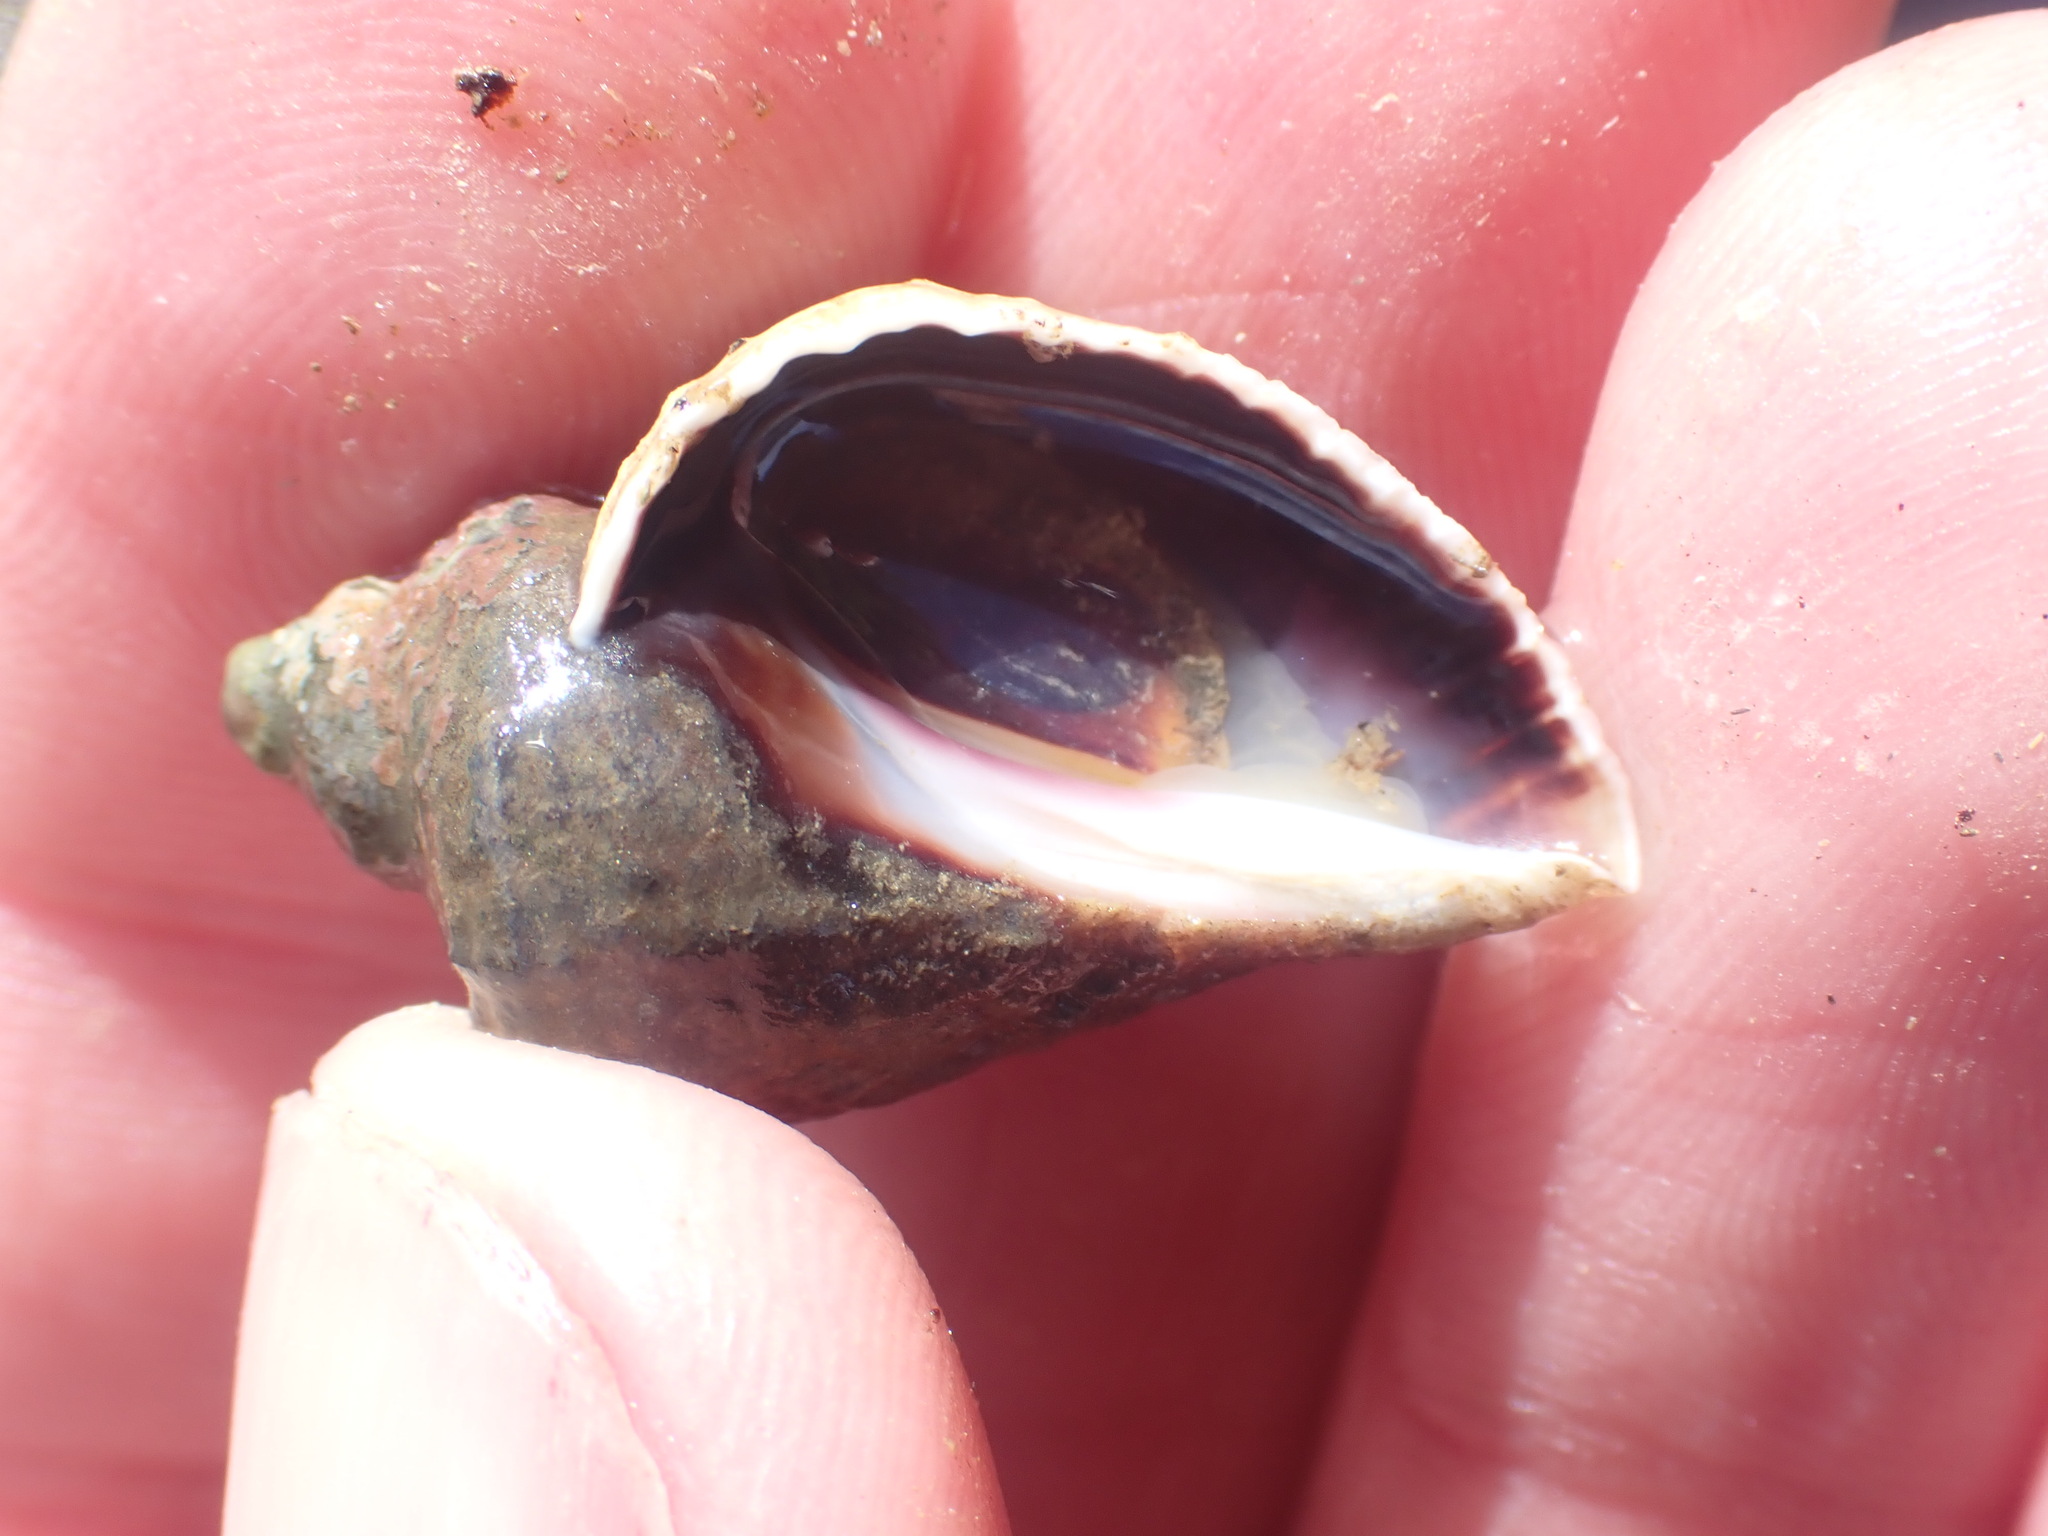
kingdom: Animalia
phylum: Mollusca
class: Gastropoda
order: Neogastropoda
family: Muricidae
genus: Haustrum
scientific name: Haustrum haustorium
